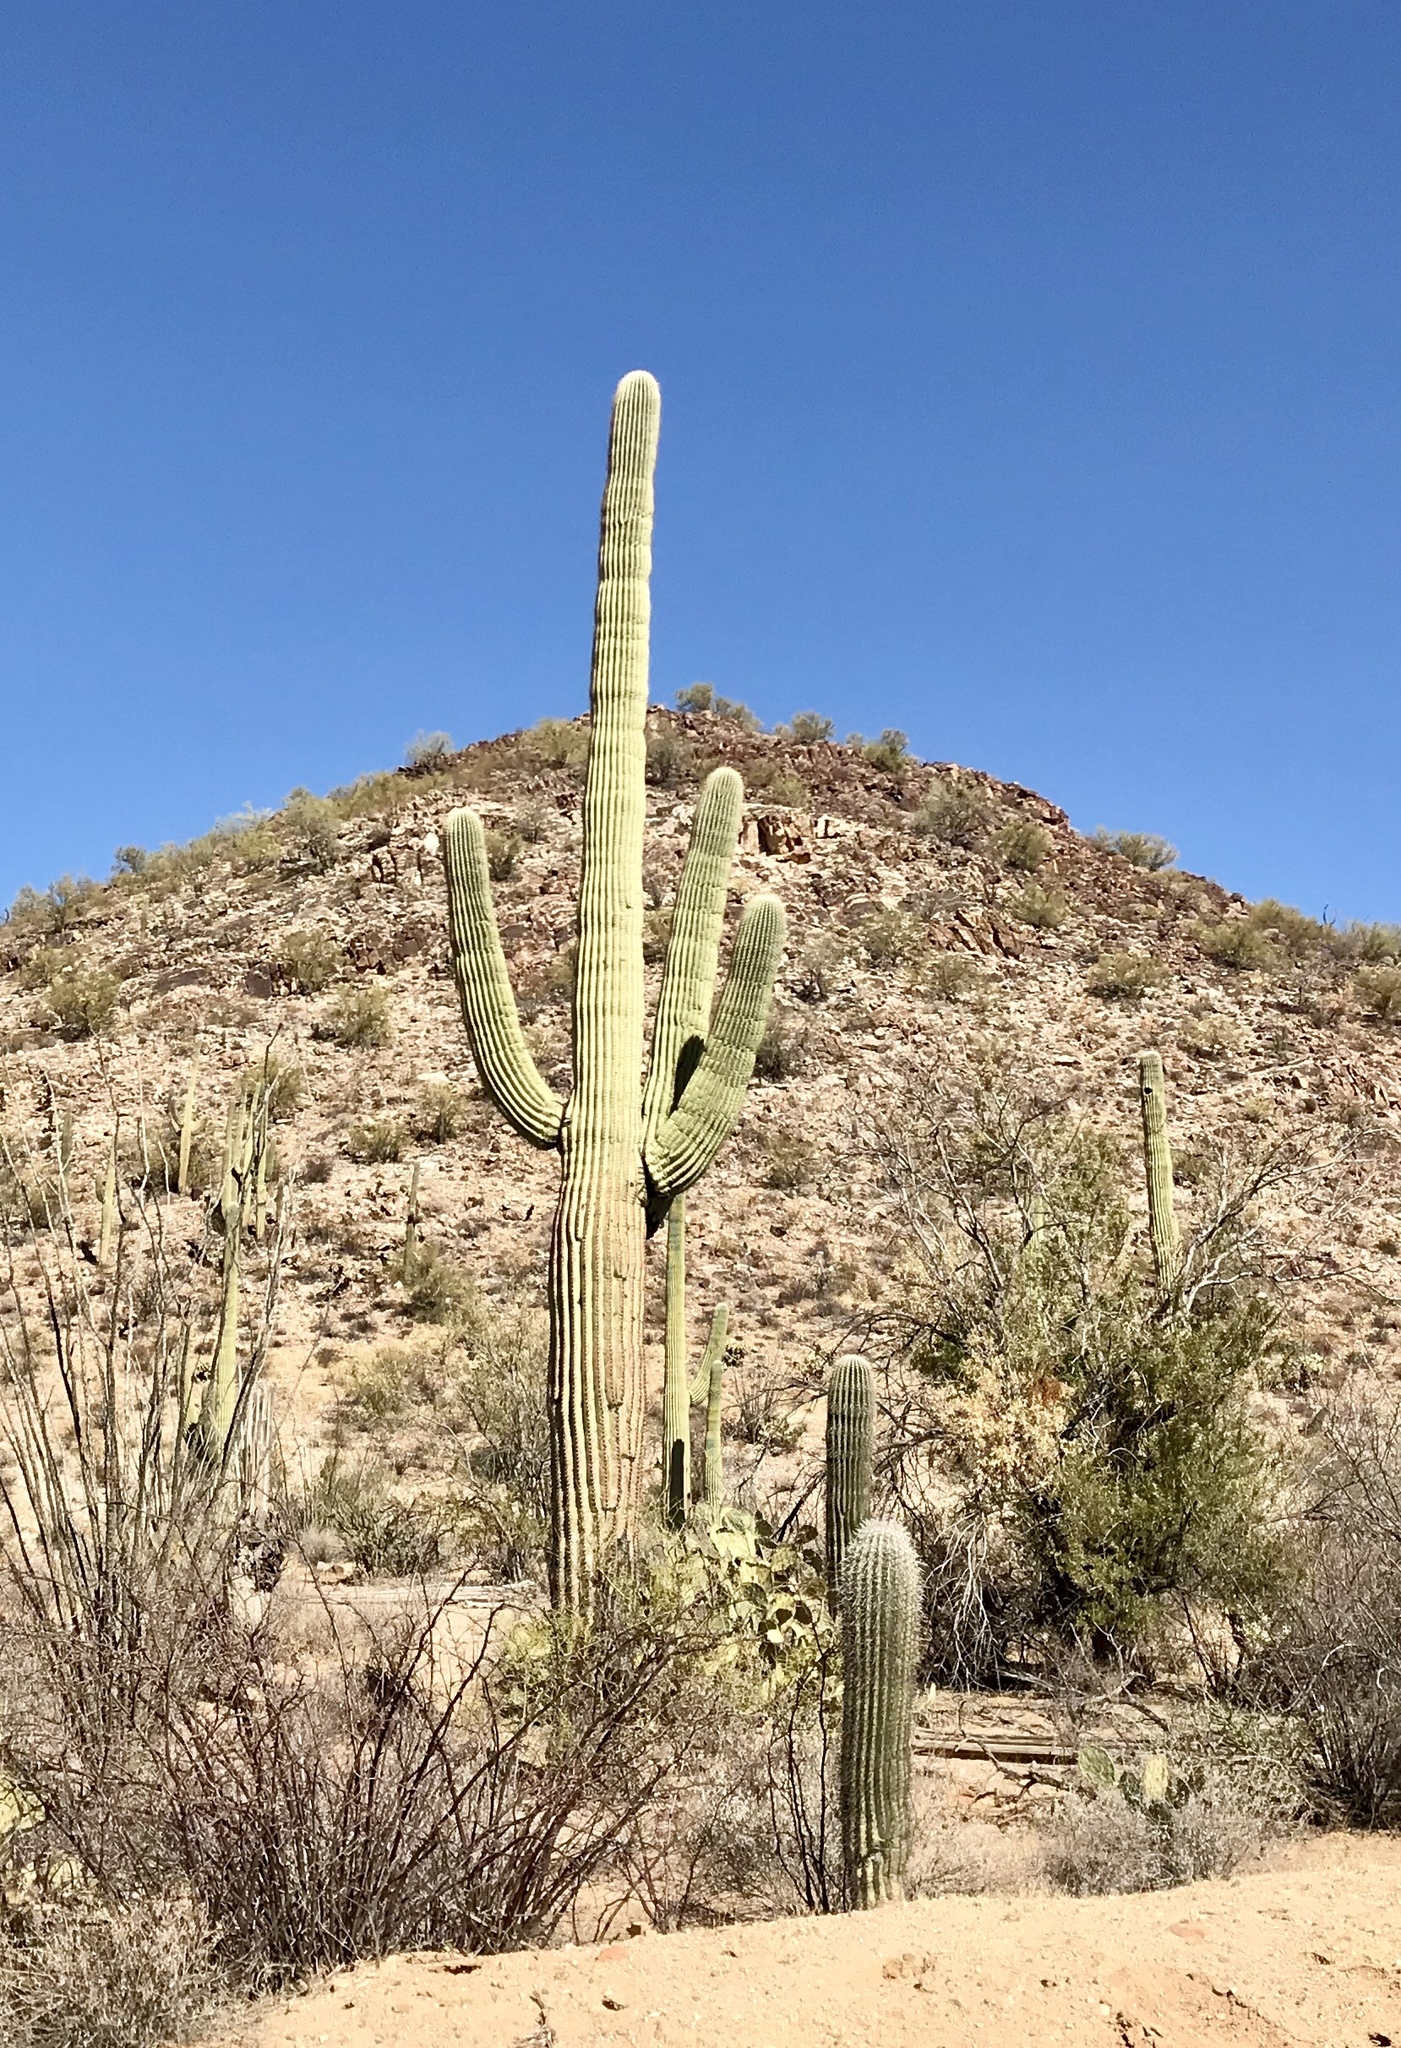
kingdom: Plantae
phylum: Tracheophyta
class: Magnoliopsida
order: Caryophyllales
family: Cactaceae
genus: Carnegiea
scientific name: Carnegiea gigantea
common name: Saguaro
